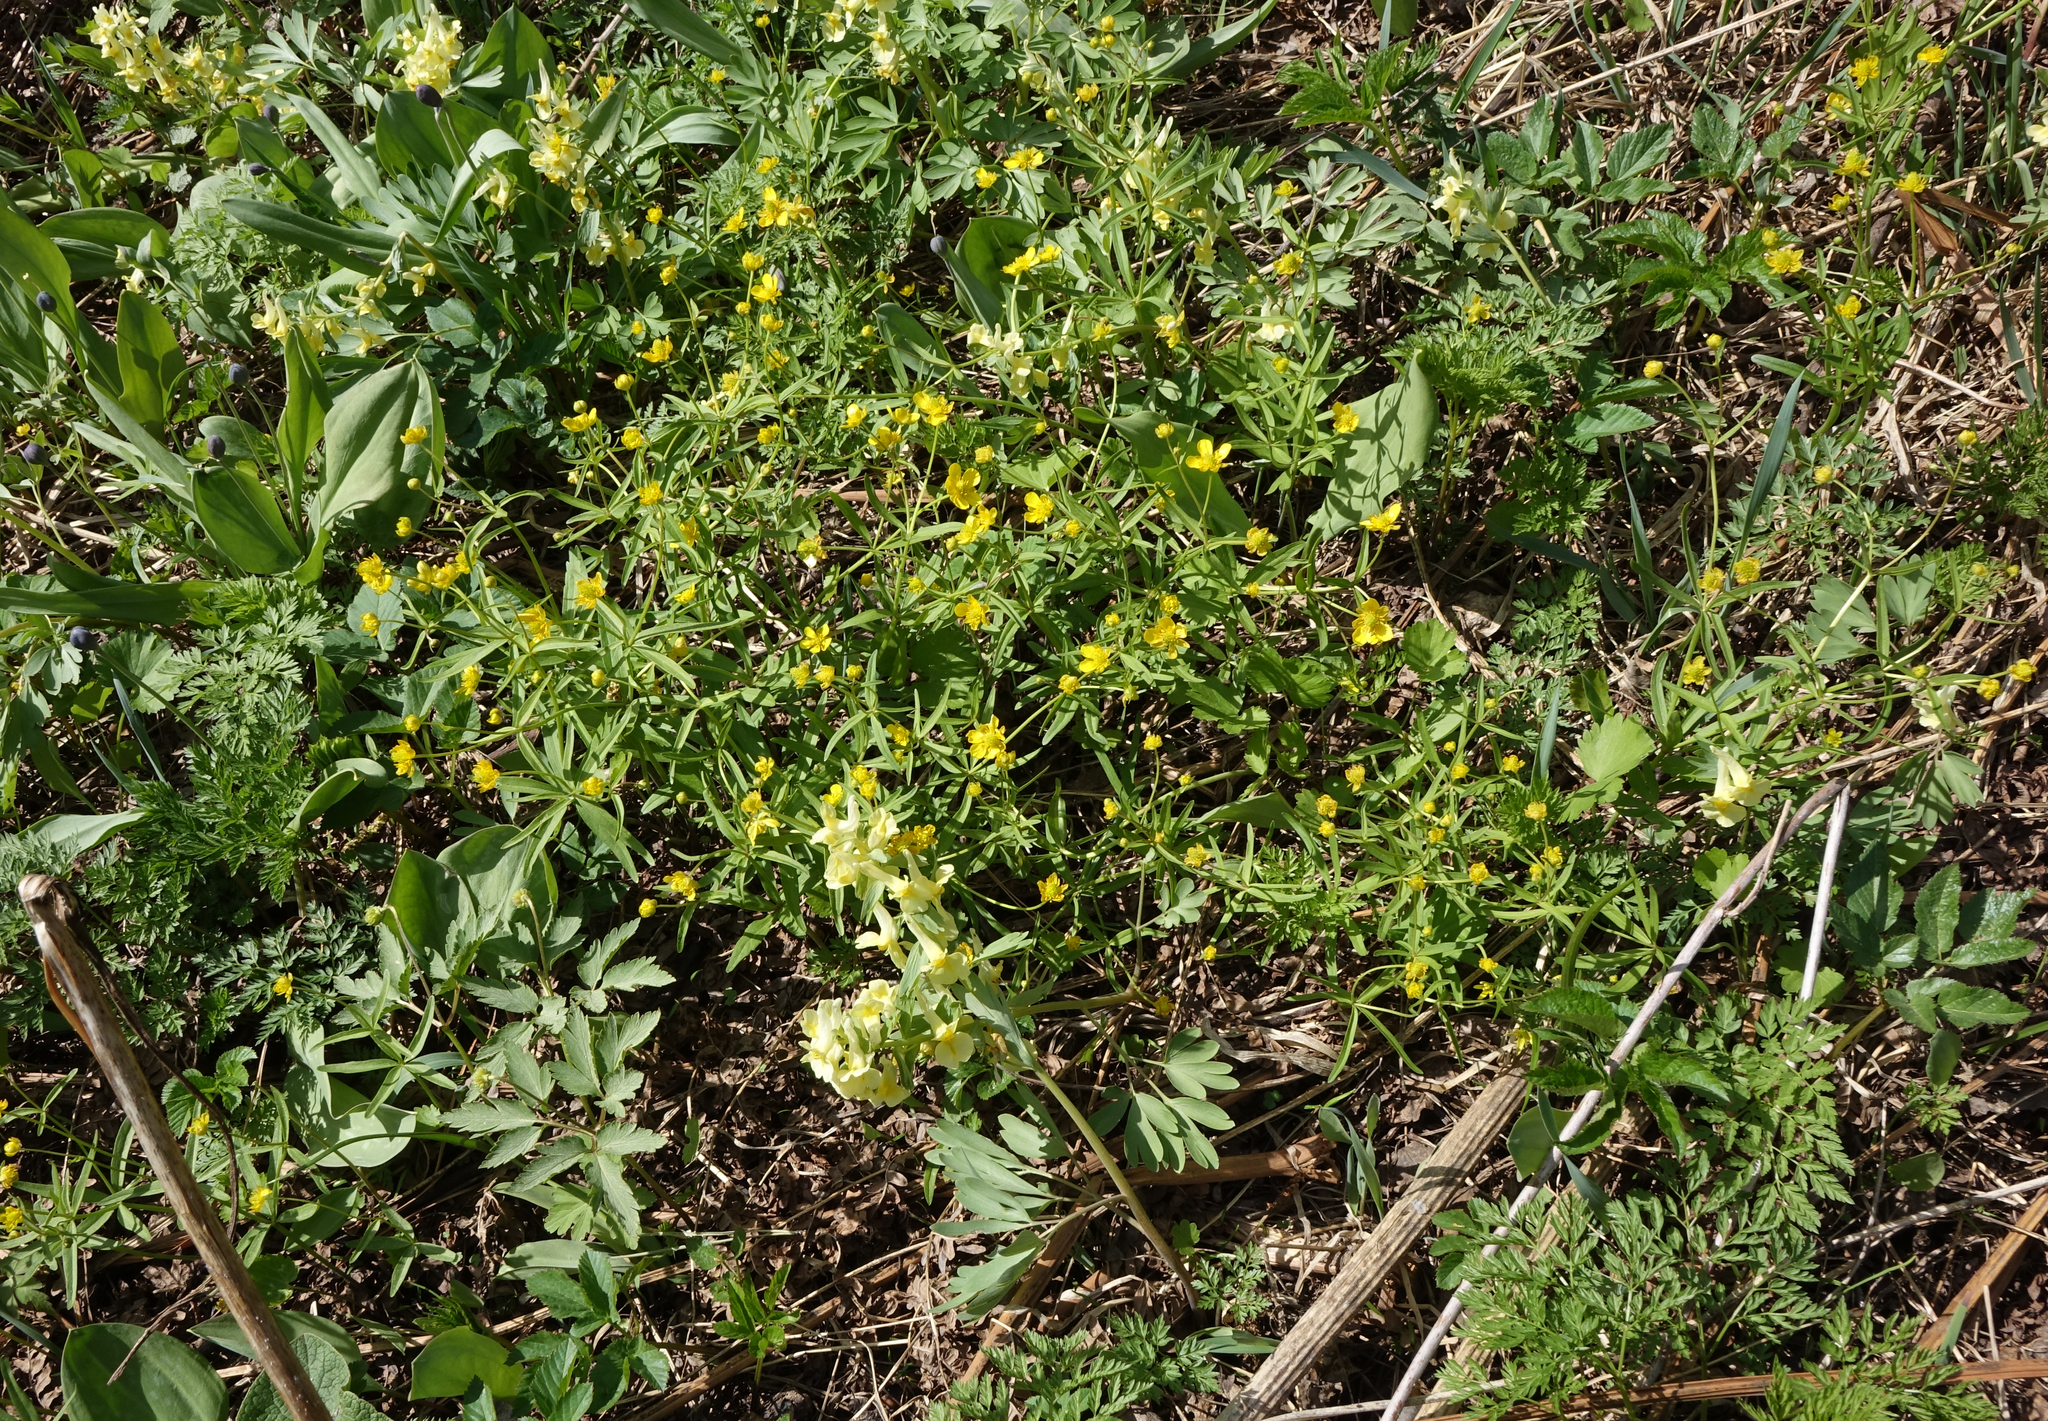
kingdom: Plantae
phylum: Tracheophyta
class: Magnoliopsida
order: Ranunculales
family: Ranunculaceae
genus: Ranunculus
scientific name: Ranunculus monophyllus
